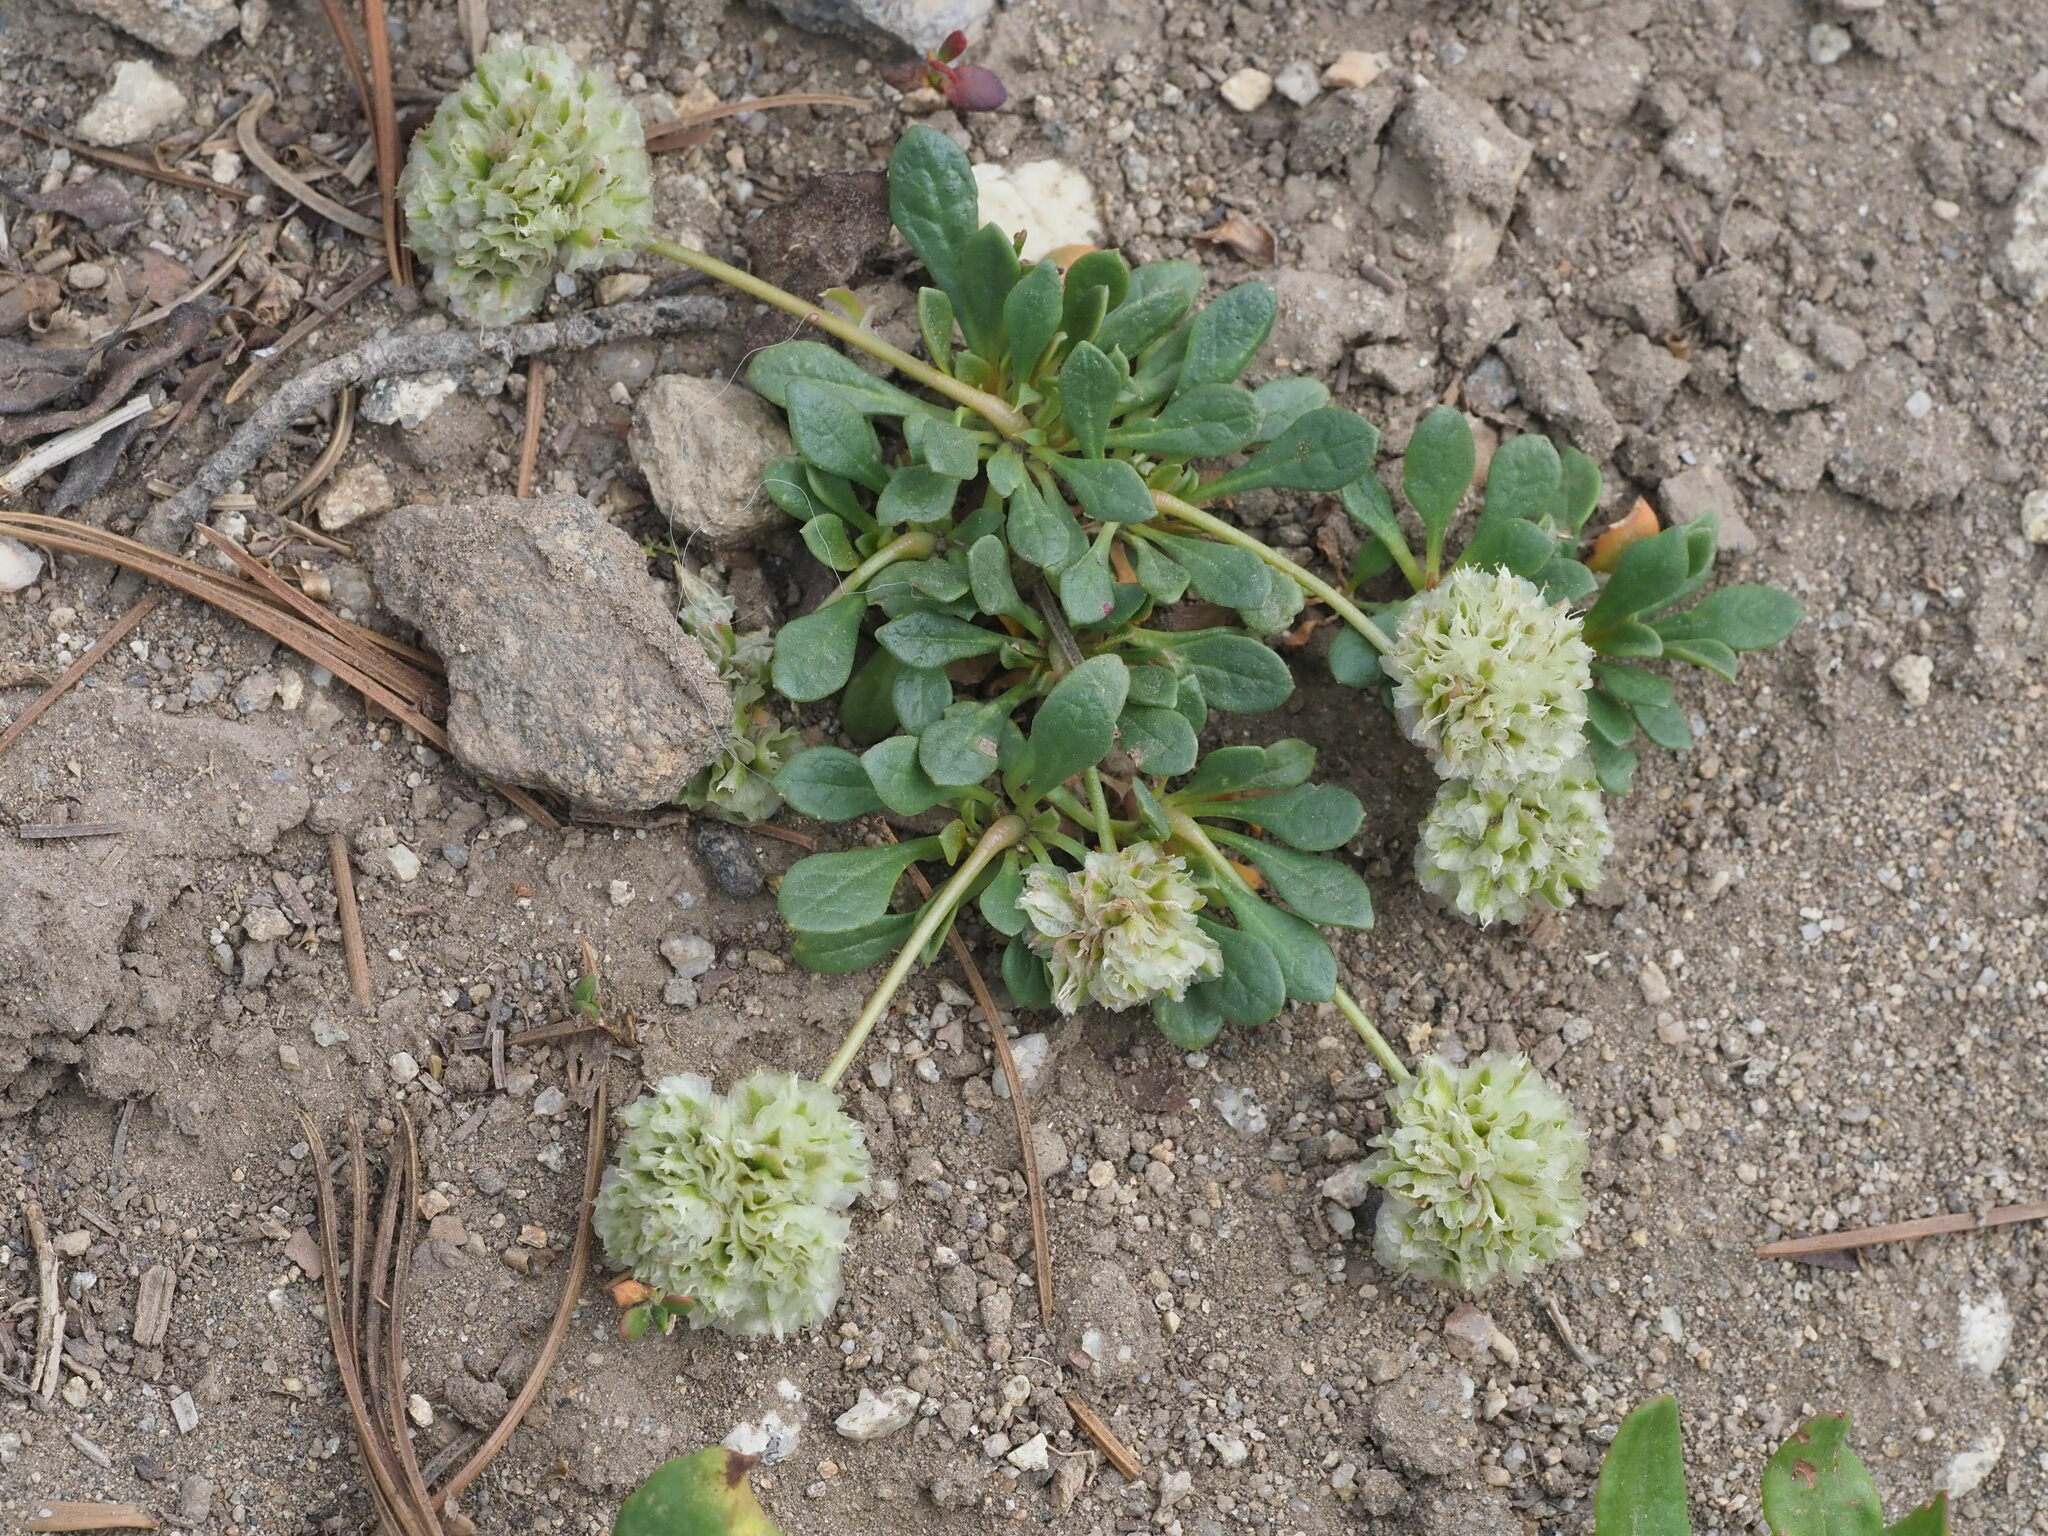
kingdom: Plantae
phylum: Tracheophyta
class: Magnoliopsida
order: Caryophyllales
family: Montiaceae
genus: Calyptridium
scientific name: Calyptridium umbellatum
